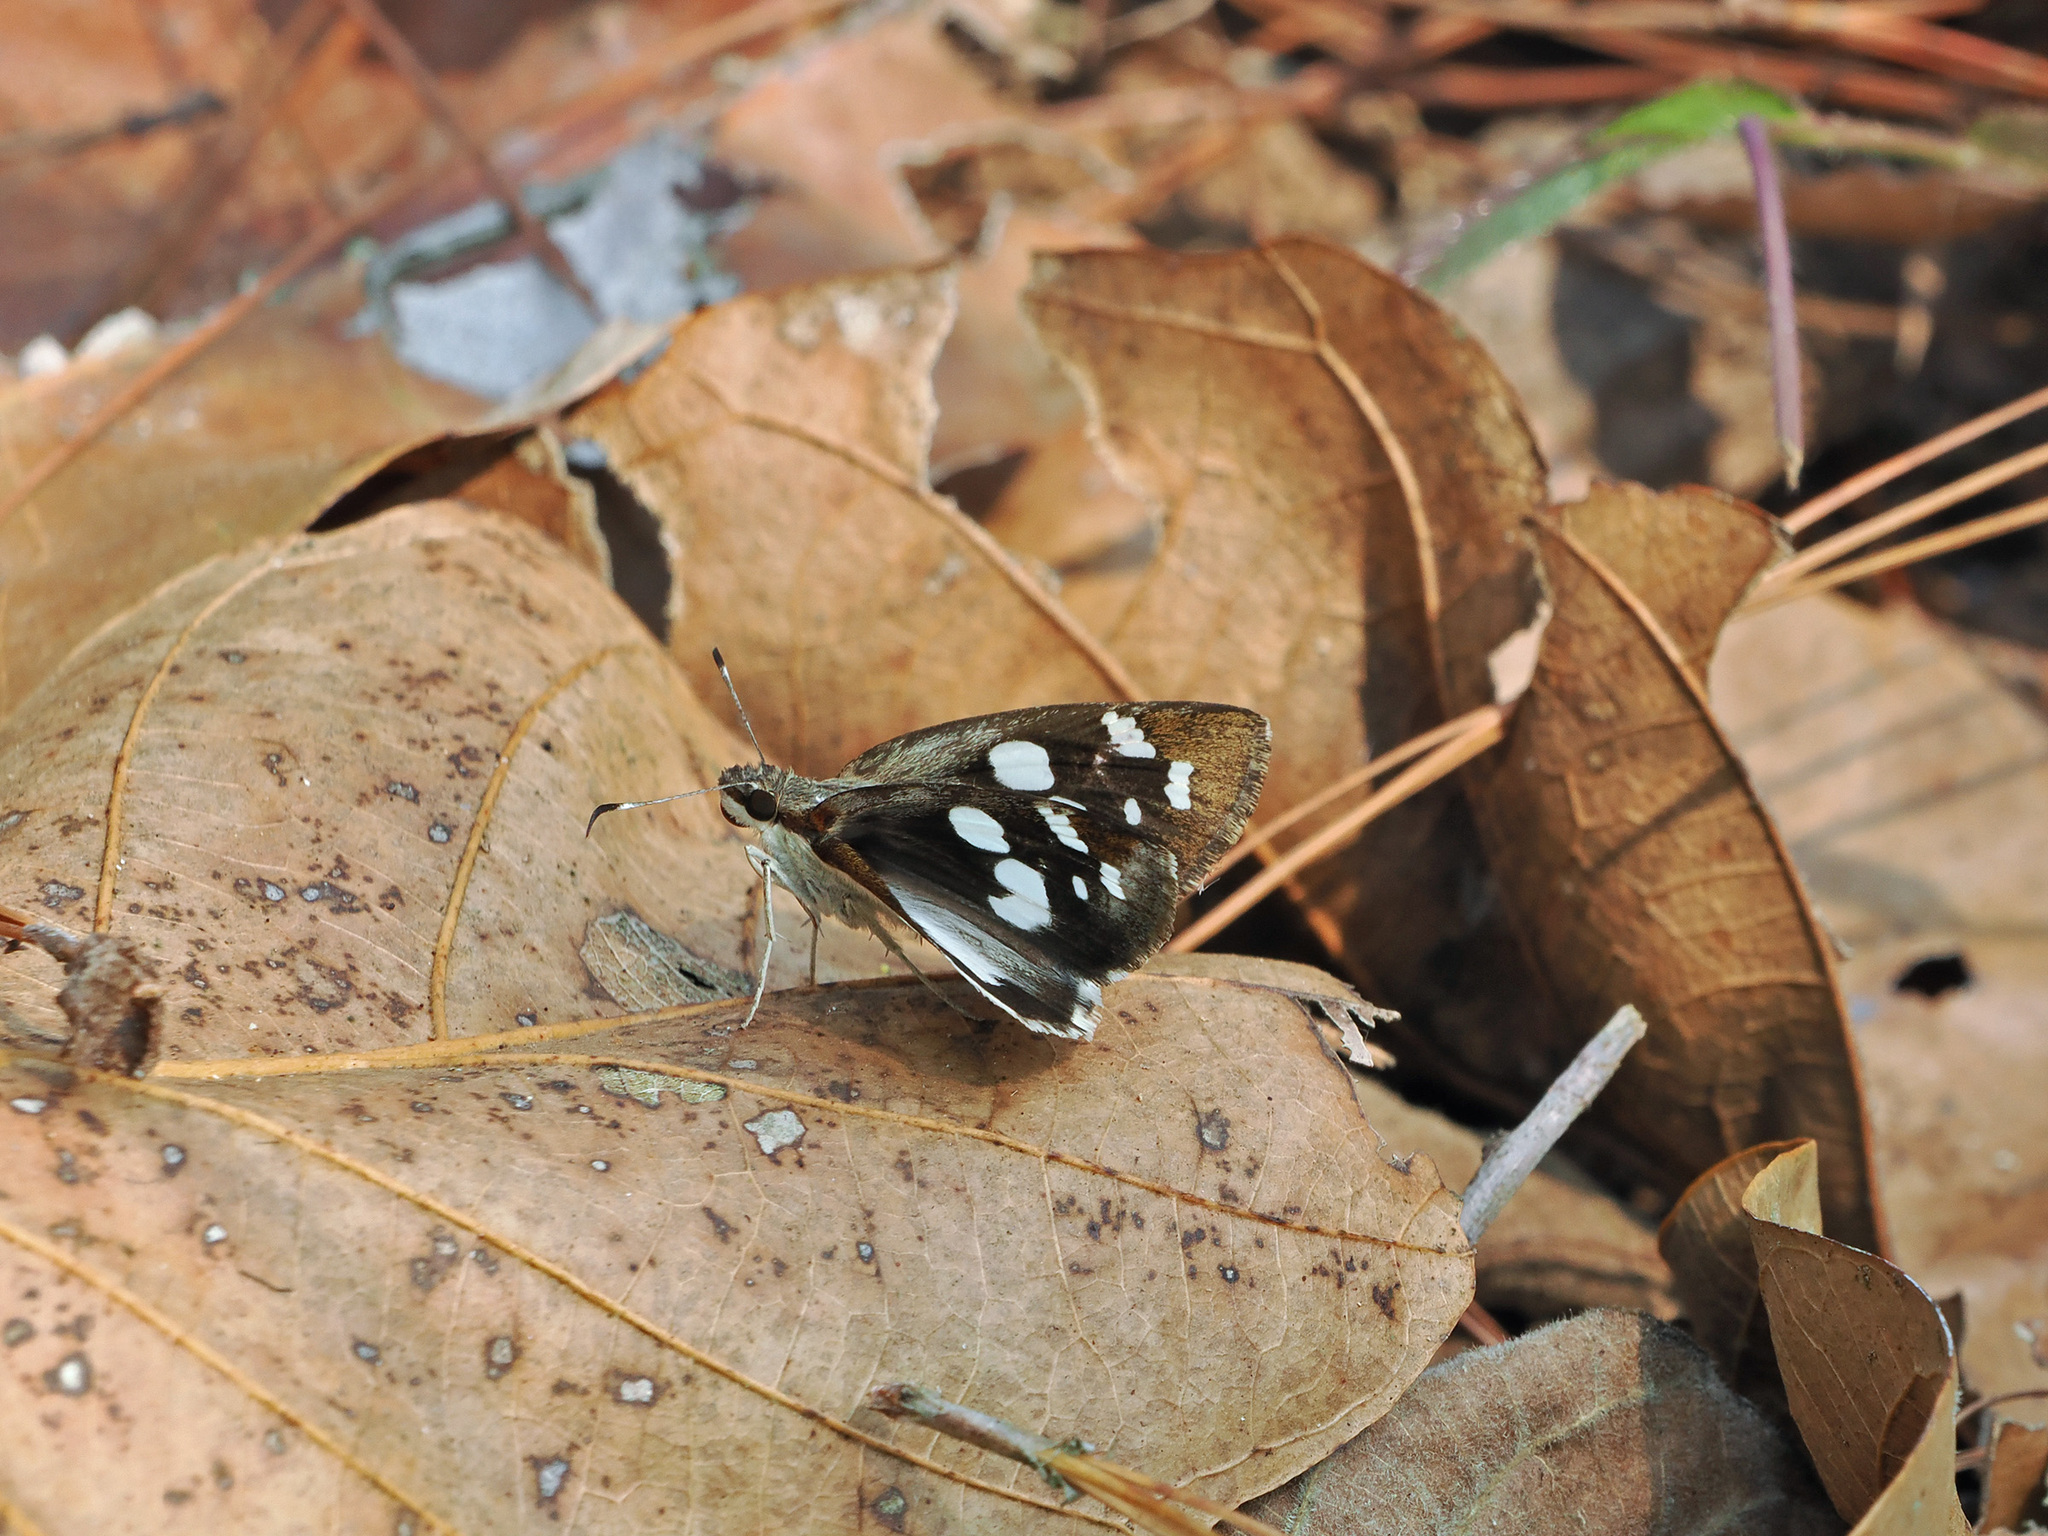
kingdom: Animalia
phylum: Arthropoda
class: Insecta
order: Lepidoptera
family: Hesperiidae
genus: Udaspes
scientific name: Udaspes folus
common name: Grass demon
